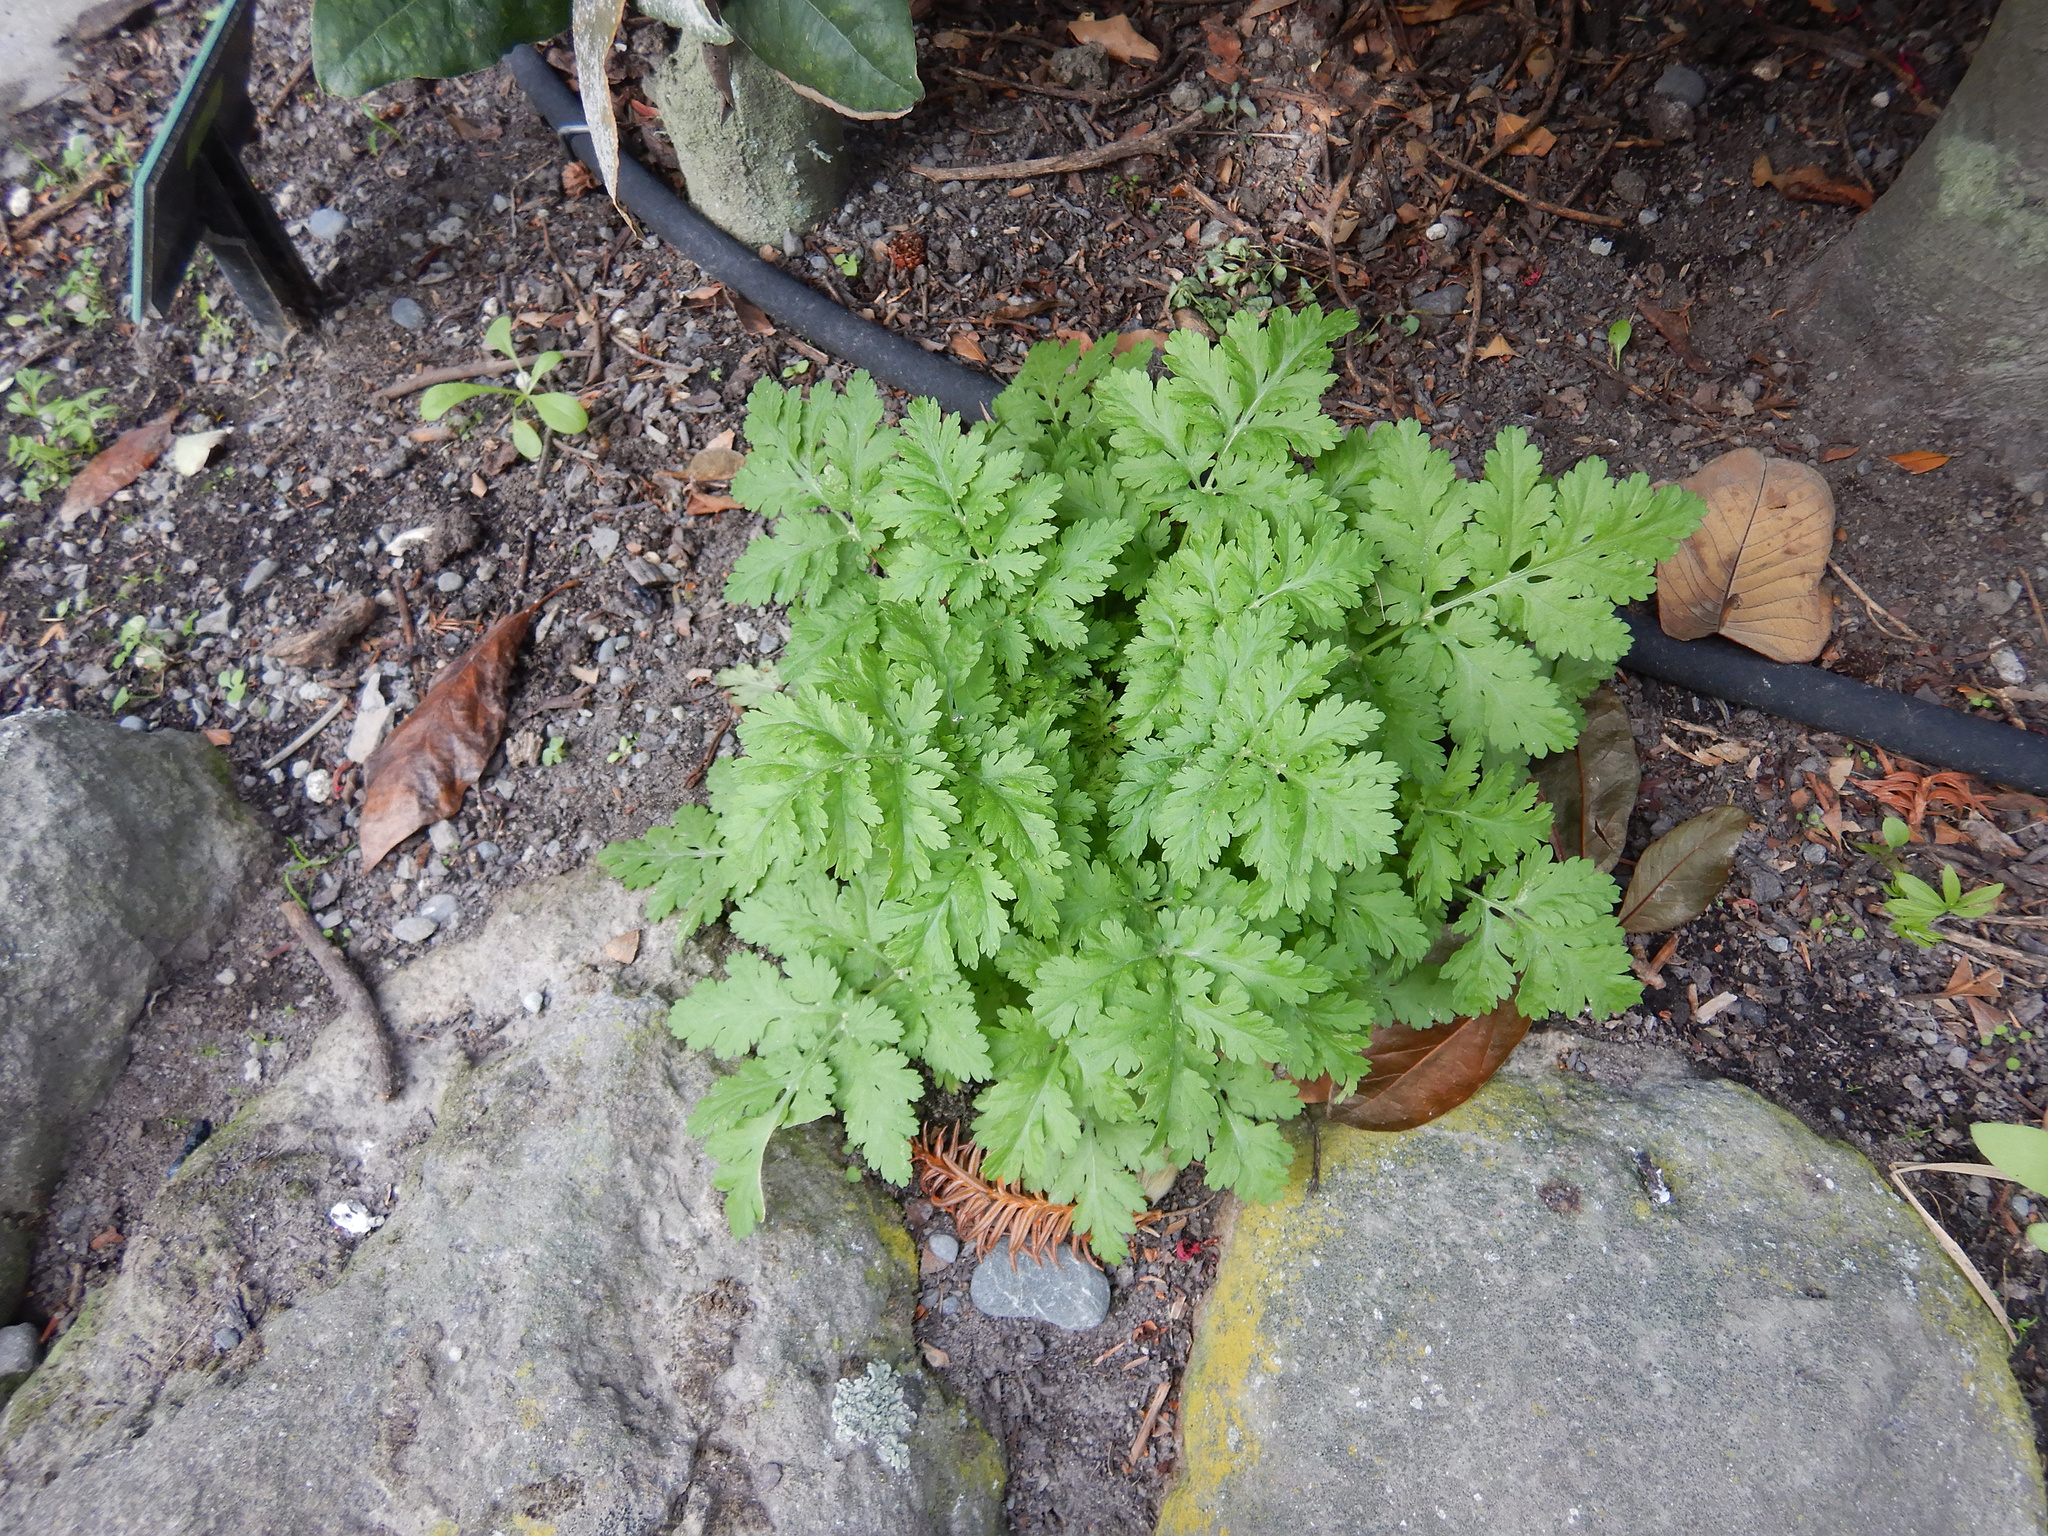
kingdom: Plantae
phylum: Tracheophyta
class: Magnoliopsida
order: Asterales
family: Asteraceae
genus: Tanacetum
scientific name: Tanacetum parthenium
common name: Feverfew
